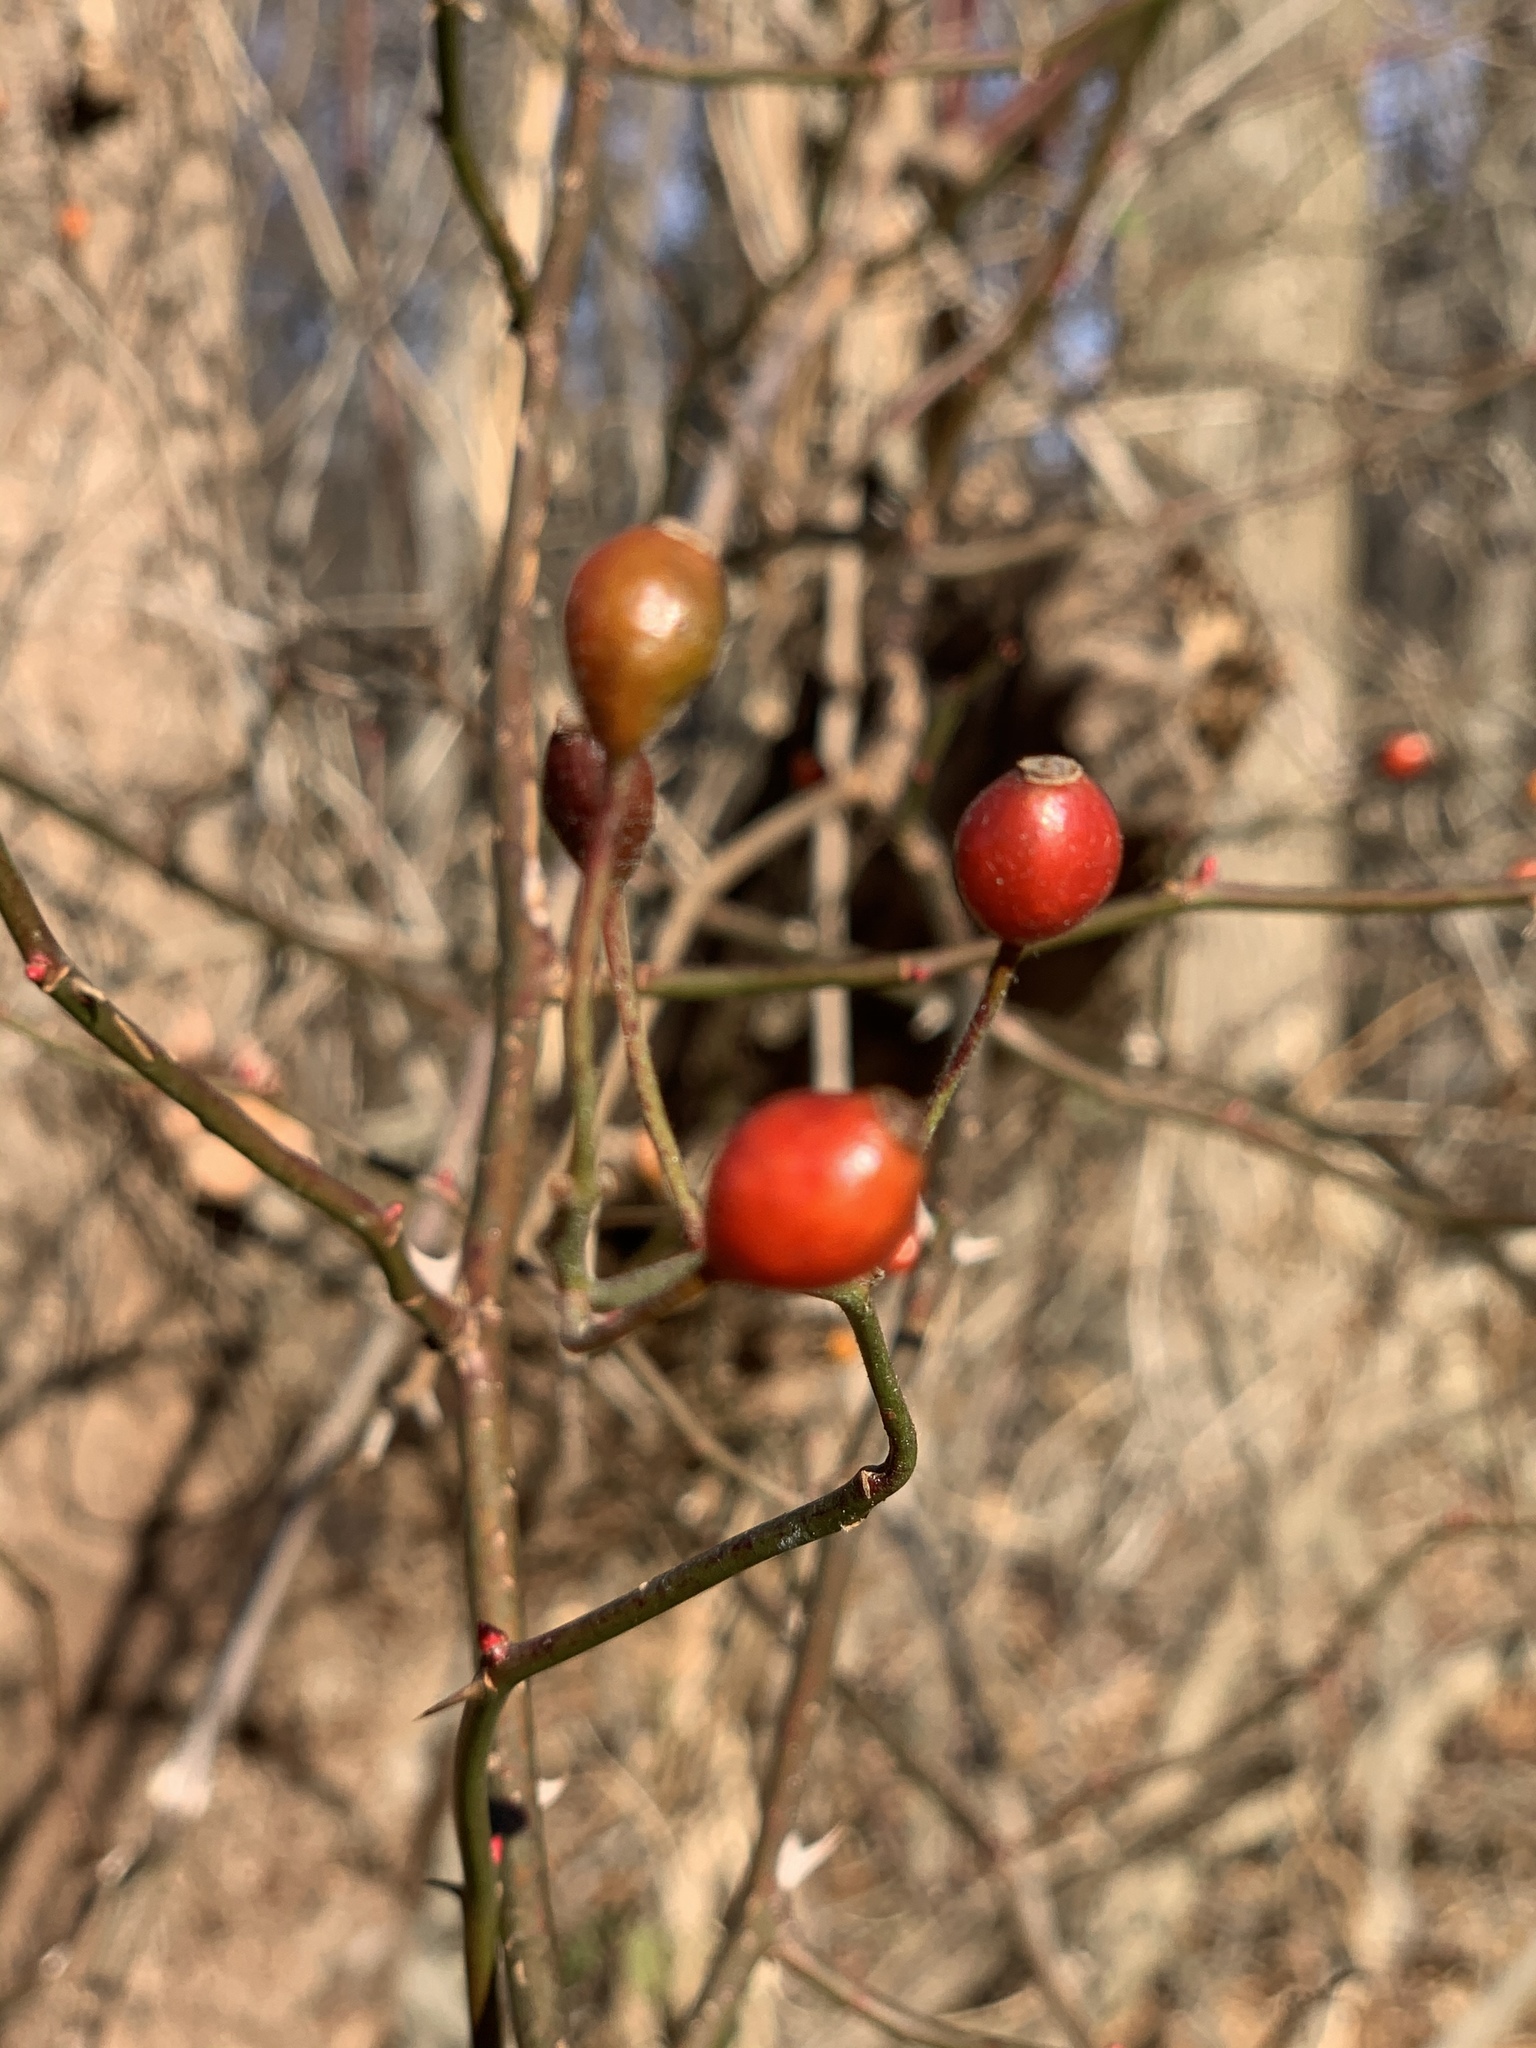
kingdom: Plantae
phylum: Tracheophyta
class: Magnoliopsida
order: Rosales
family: Rosaceae
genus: Rosa
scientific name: Rosa multiflora
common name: Multiflora rose
